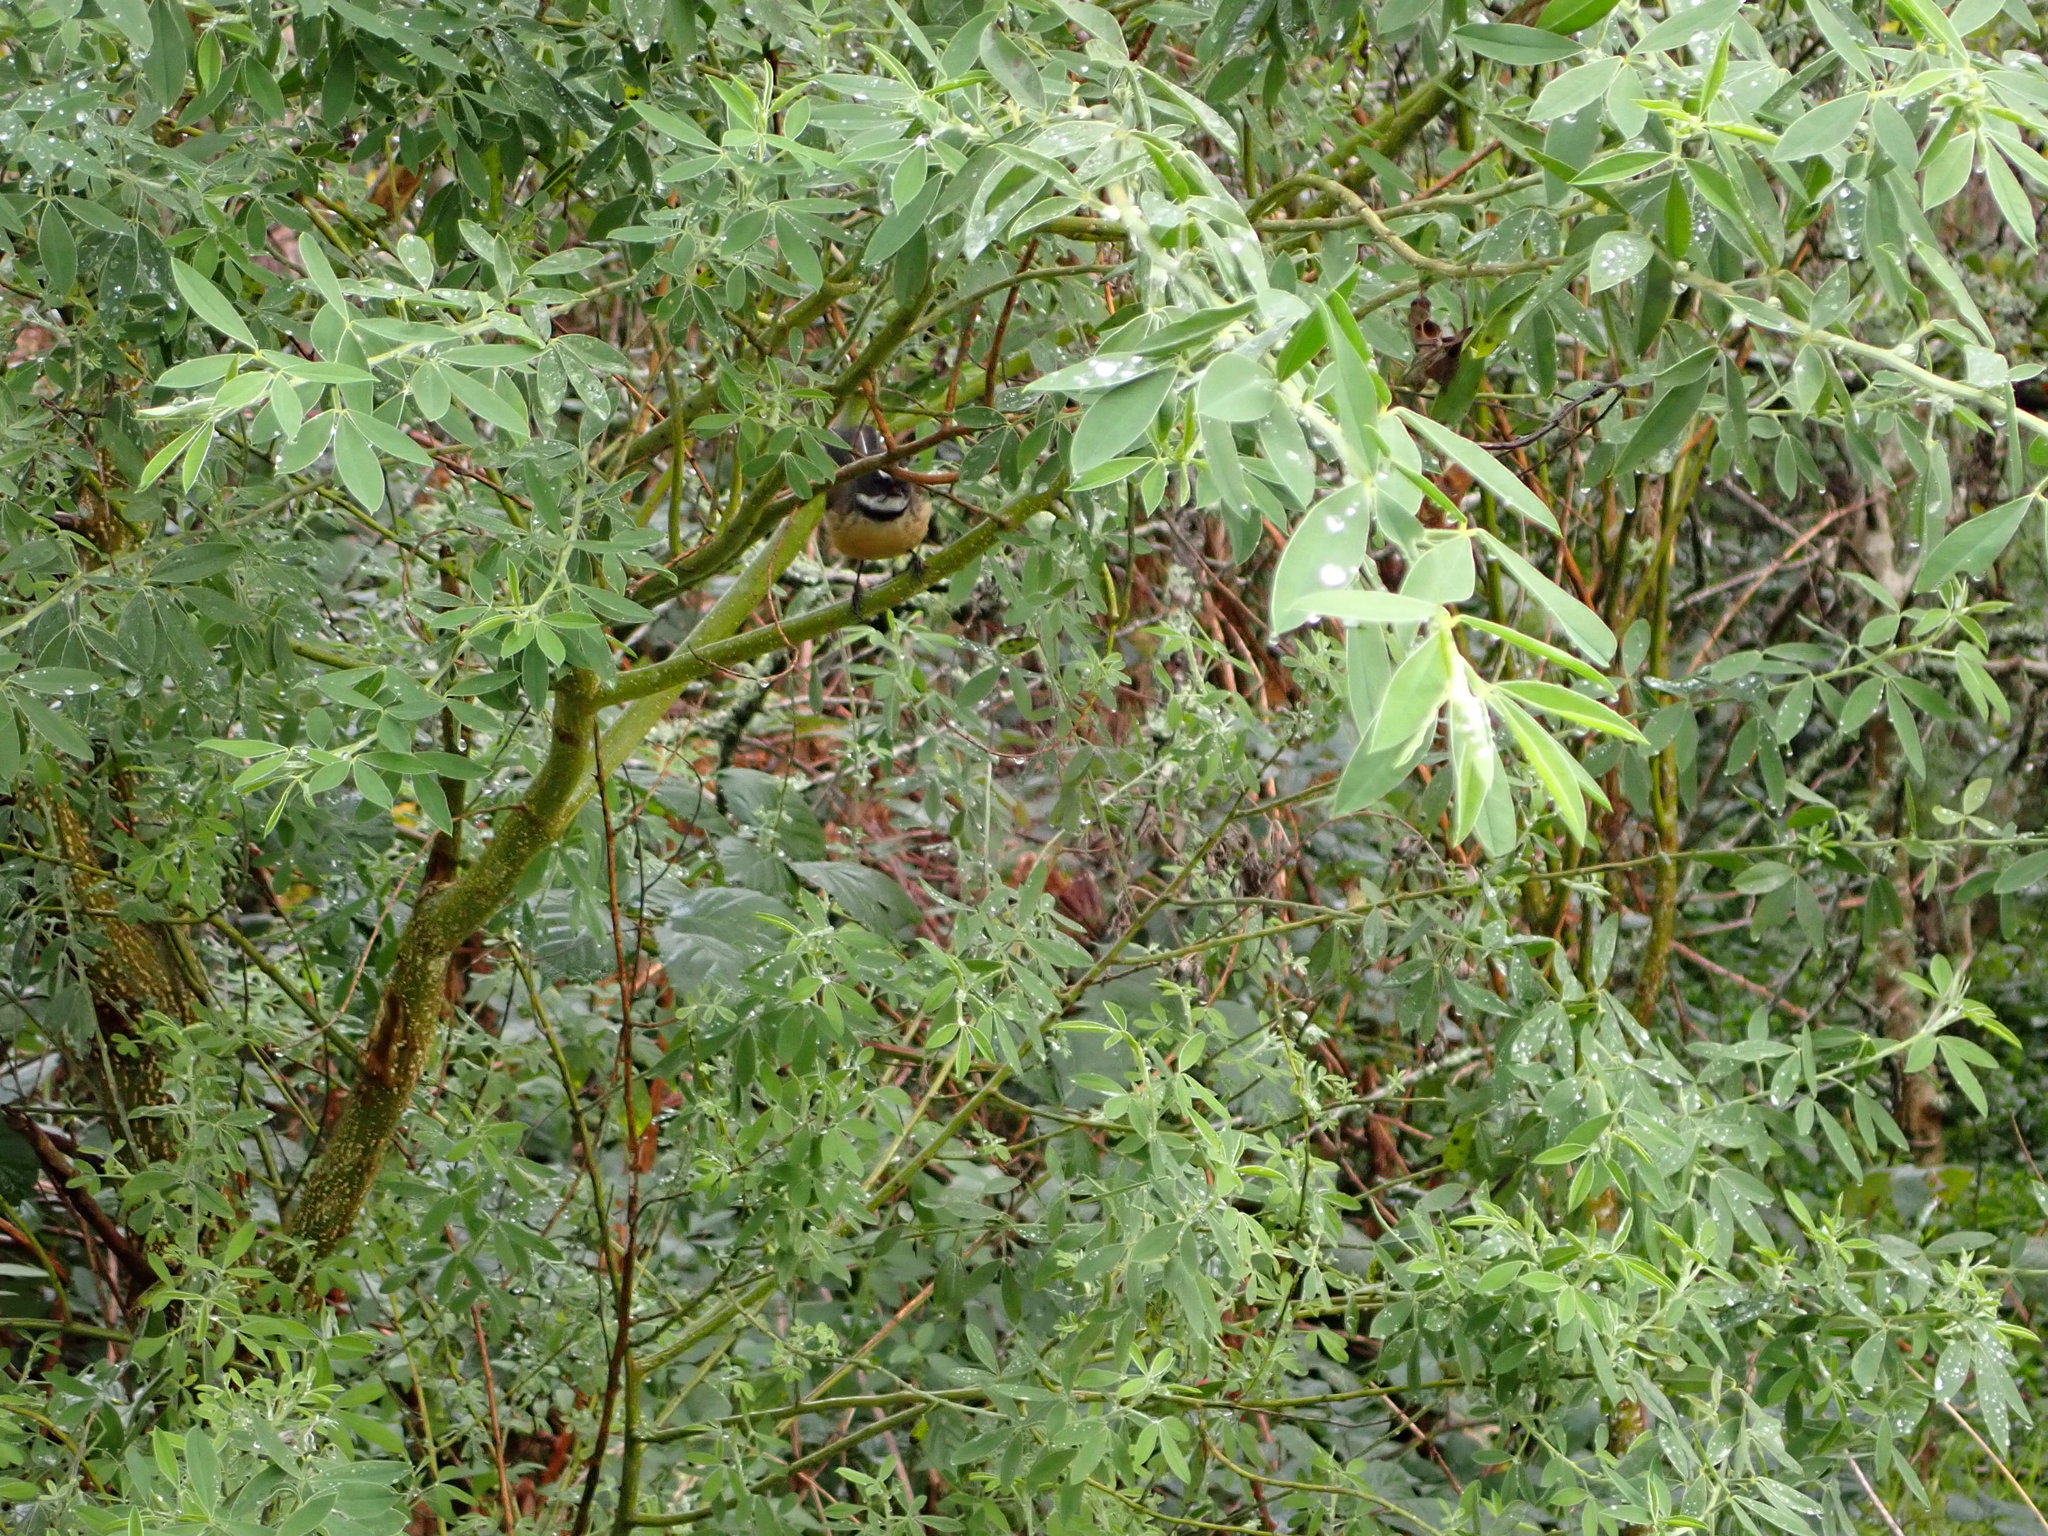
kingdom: Animalia
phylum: Chordata
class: Aves
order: Passeriformes
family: Rhipiduridae
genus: Rhipidura
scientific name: Rhipidura fuliginosa
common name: New zealand fantail
